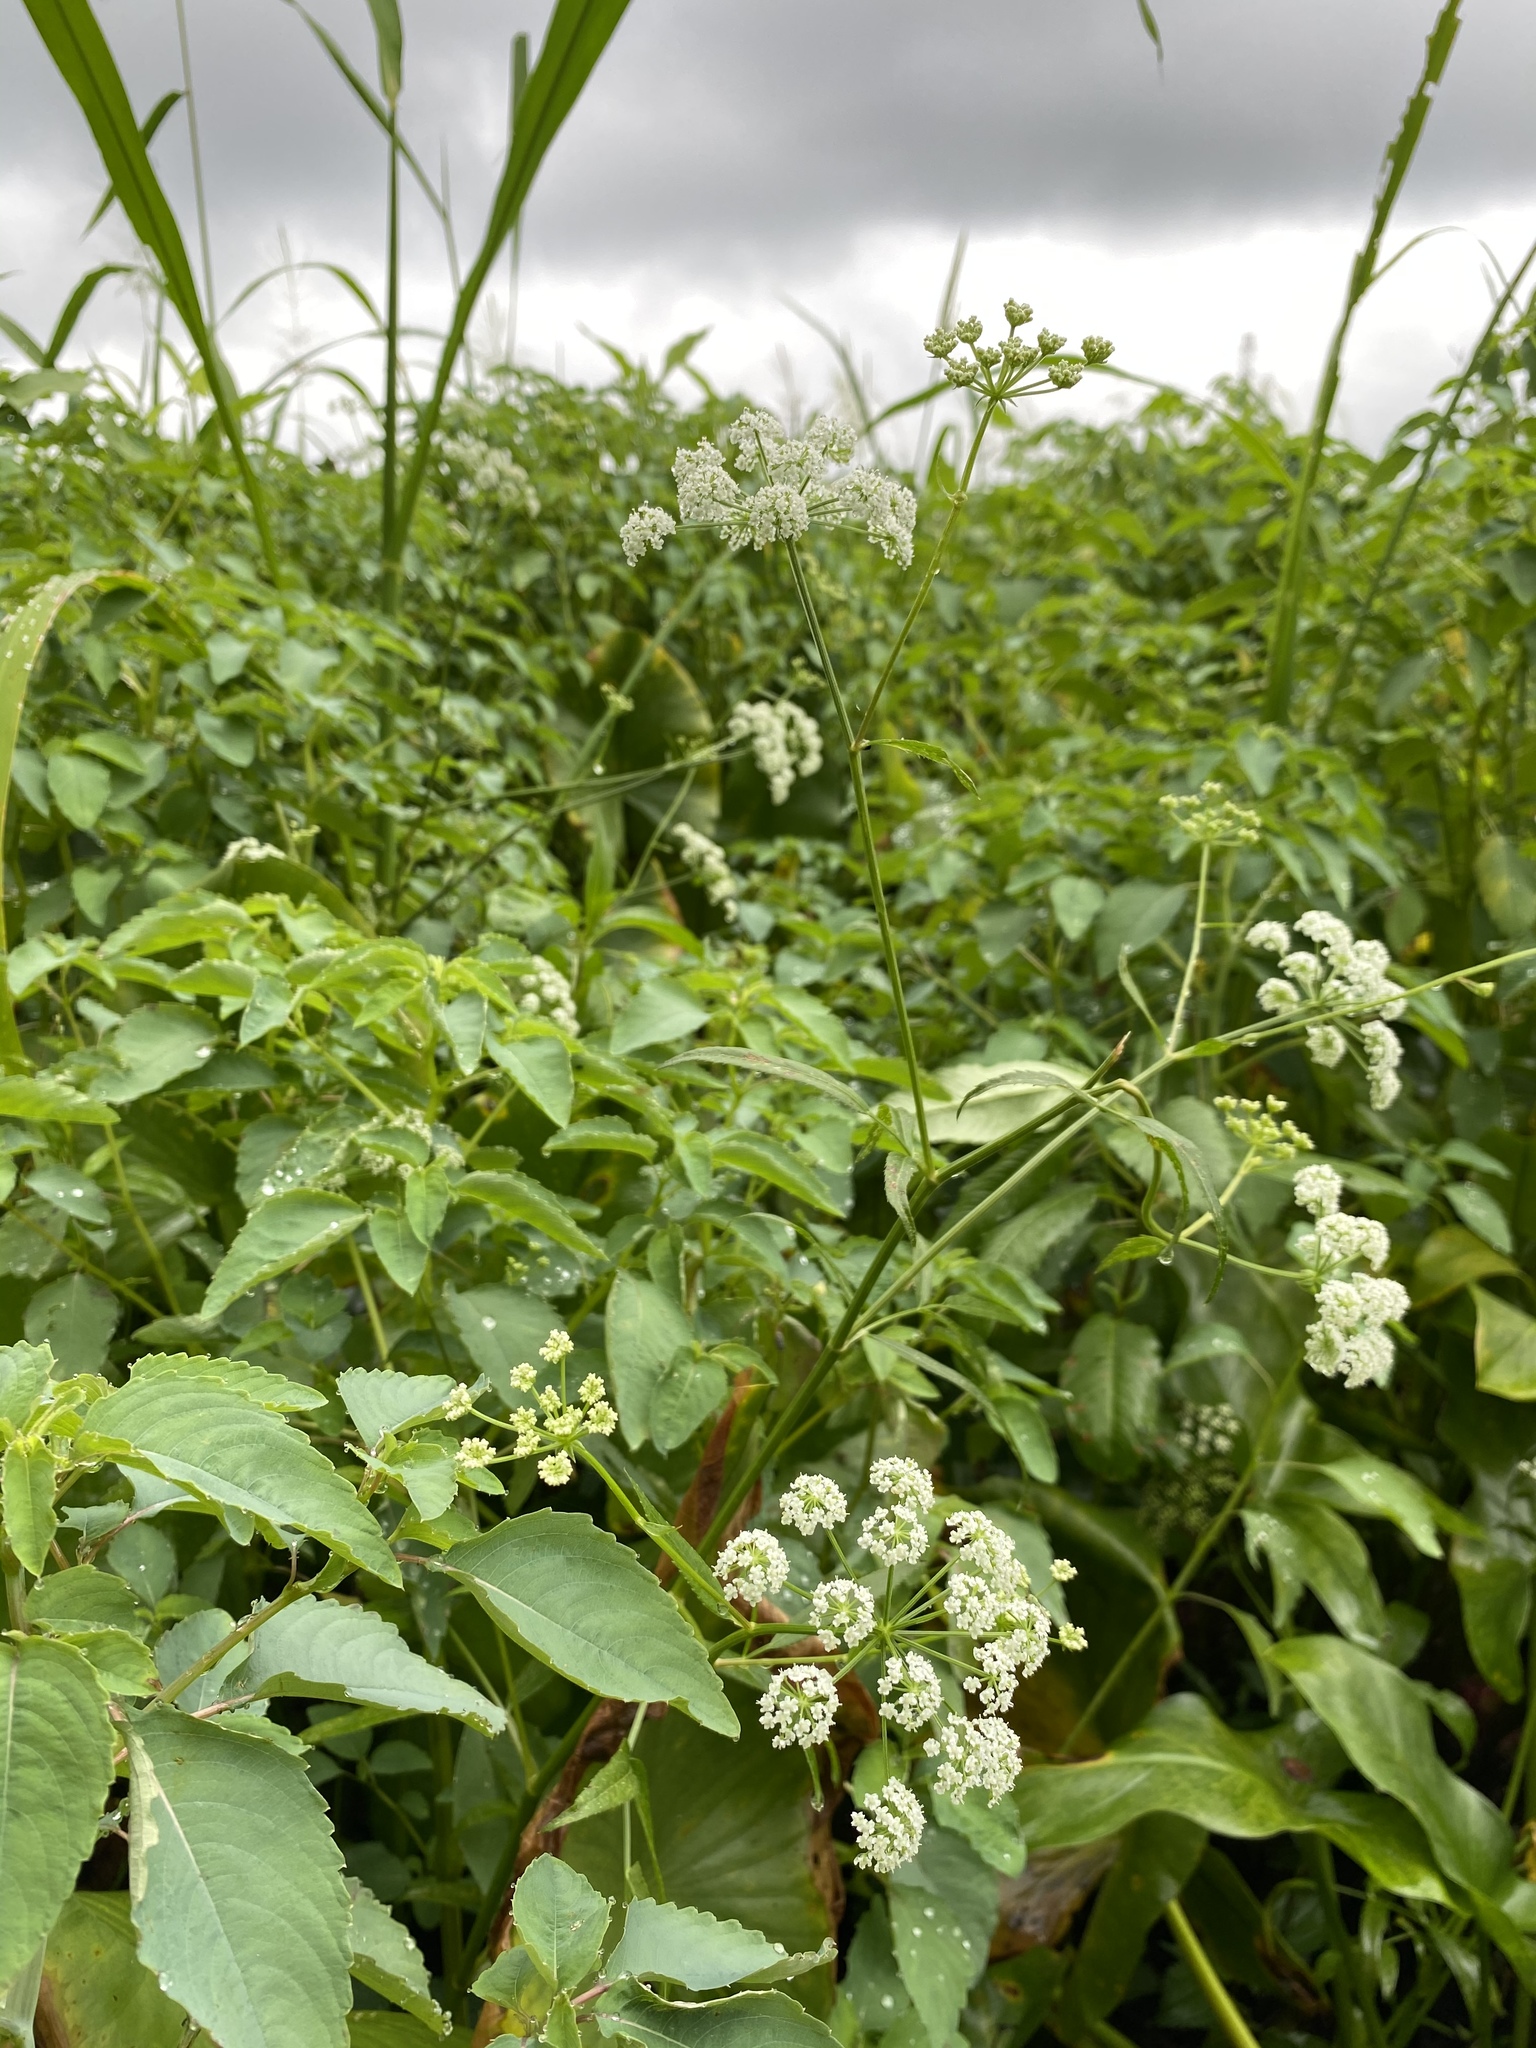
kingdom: Plantae
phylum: Tracheophyta
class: Magnoliopsida
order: Apiales
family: Apiaceae
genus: Sium
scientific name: Sium suave
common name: Hemlock water-parsnip
